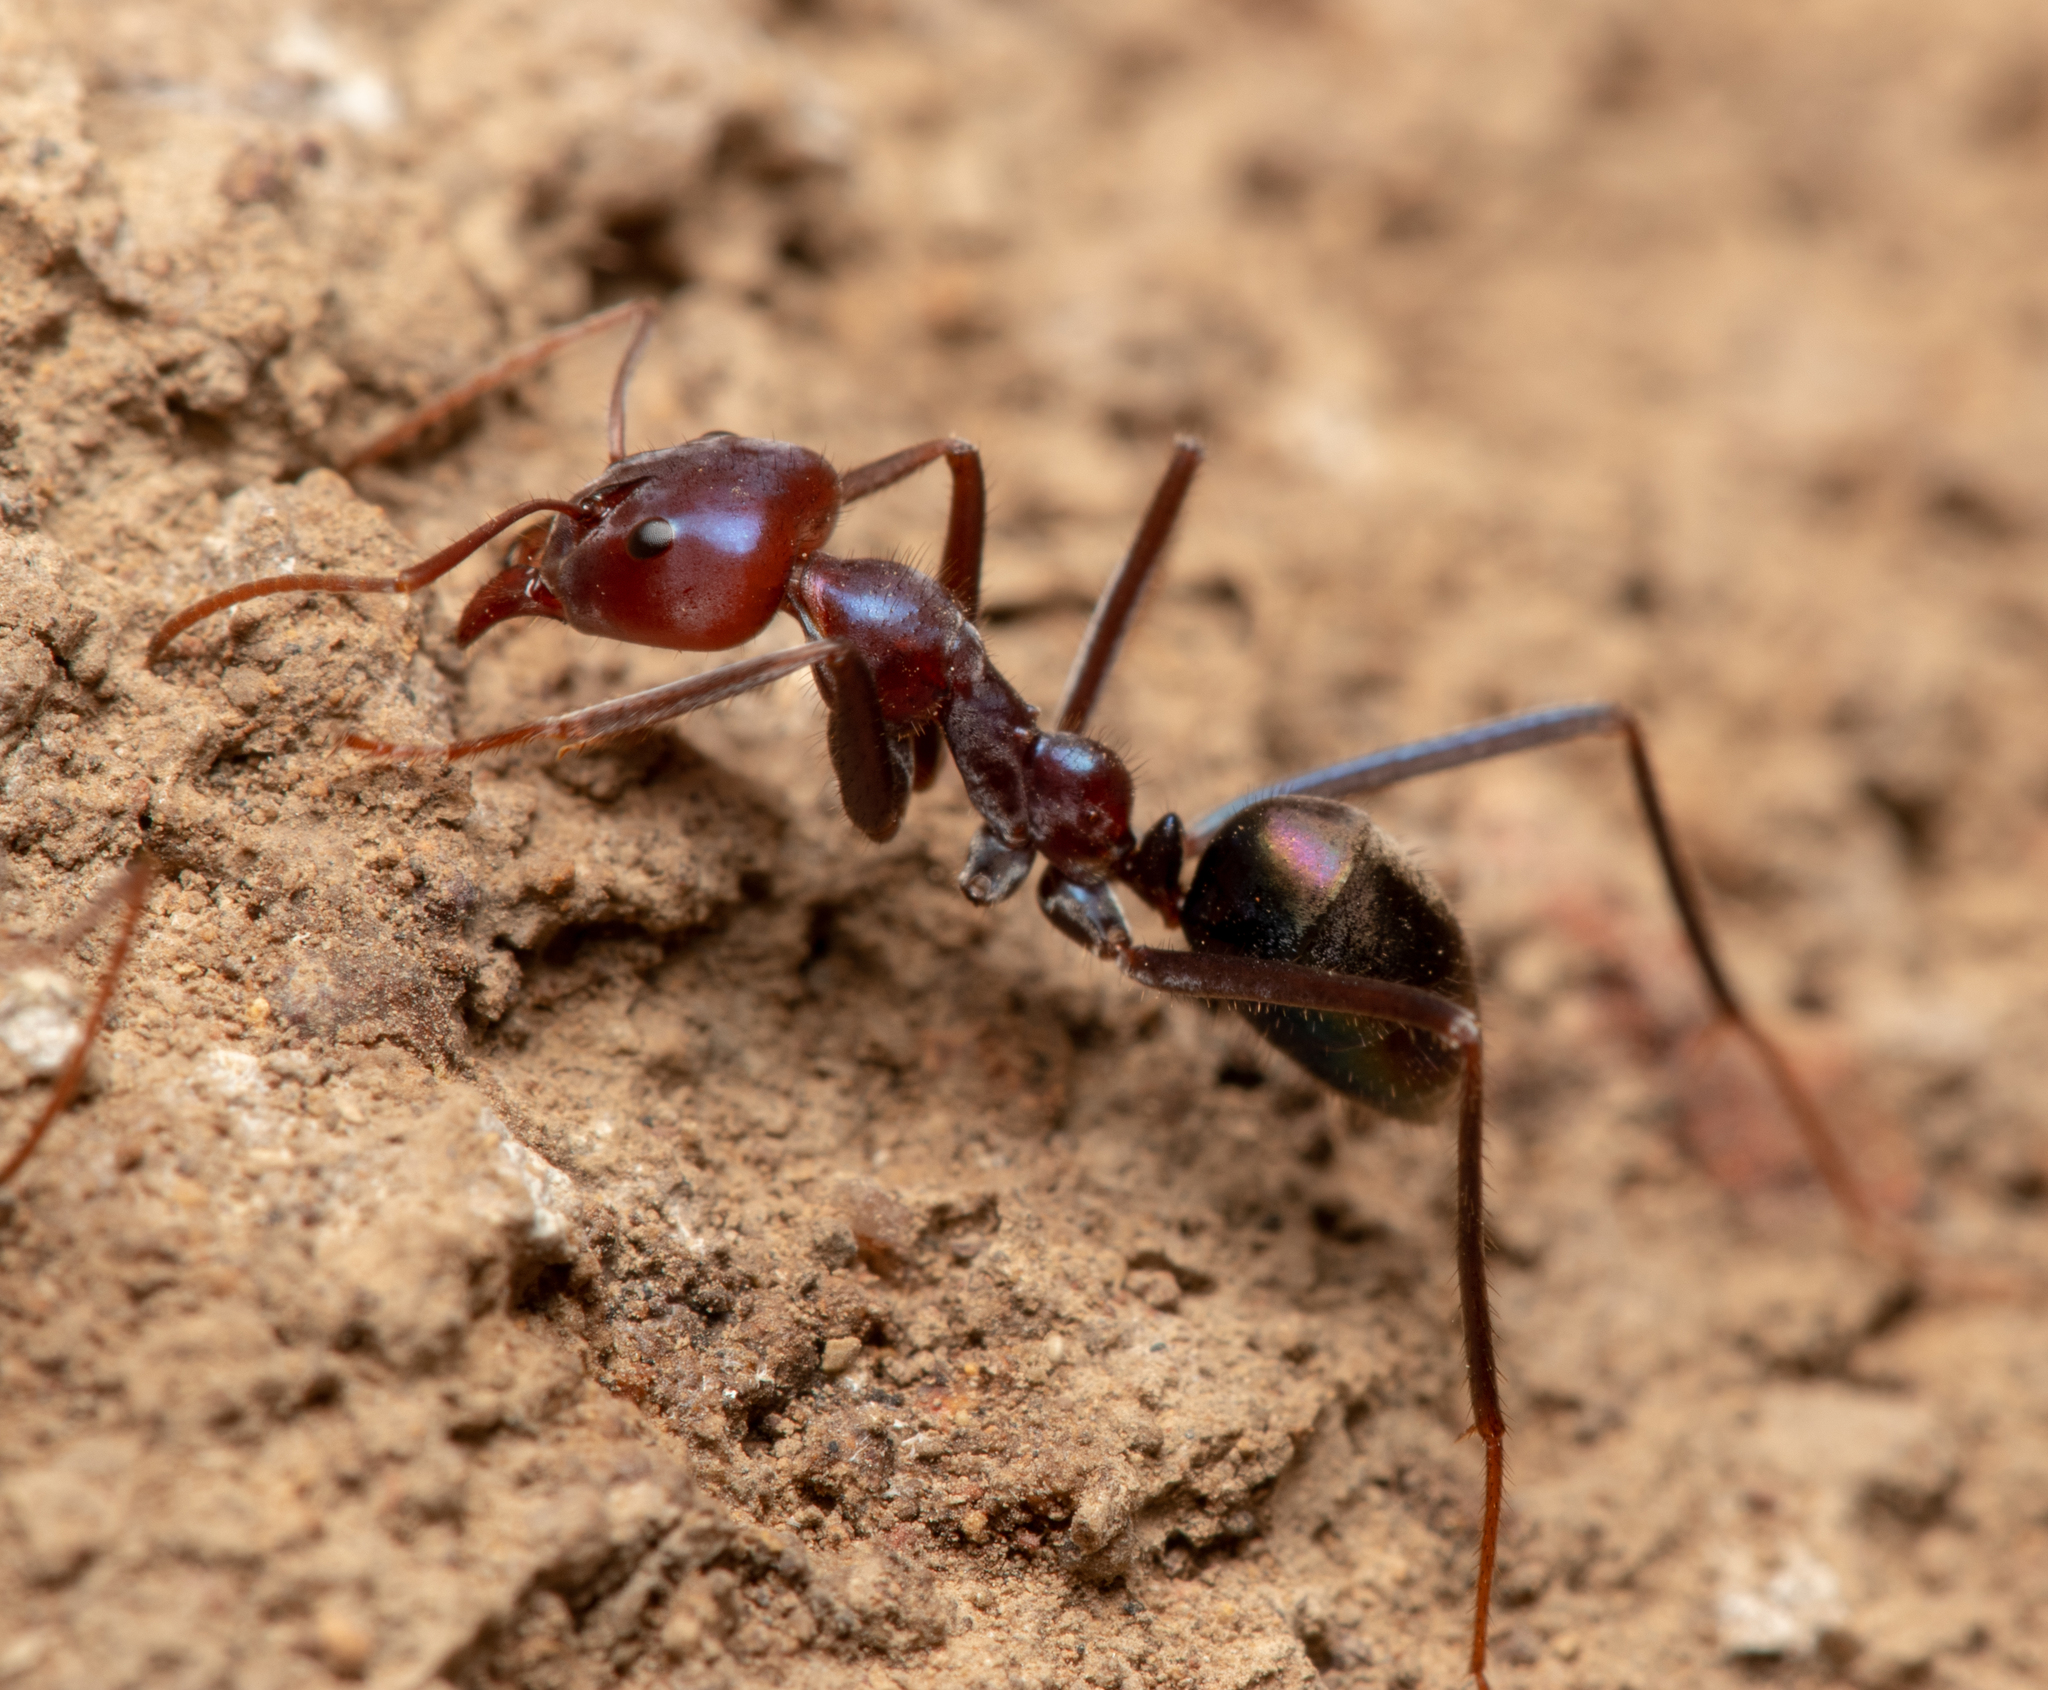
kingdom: Animalia
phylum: Arthropoda
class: Insecta
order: Hymenoptera
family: Formicidae
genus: Iridomyrmex
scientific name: Iridomyrmex purpureus
